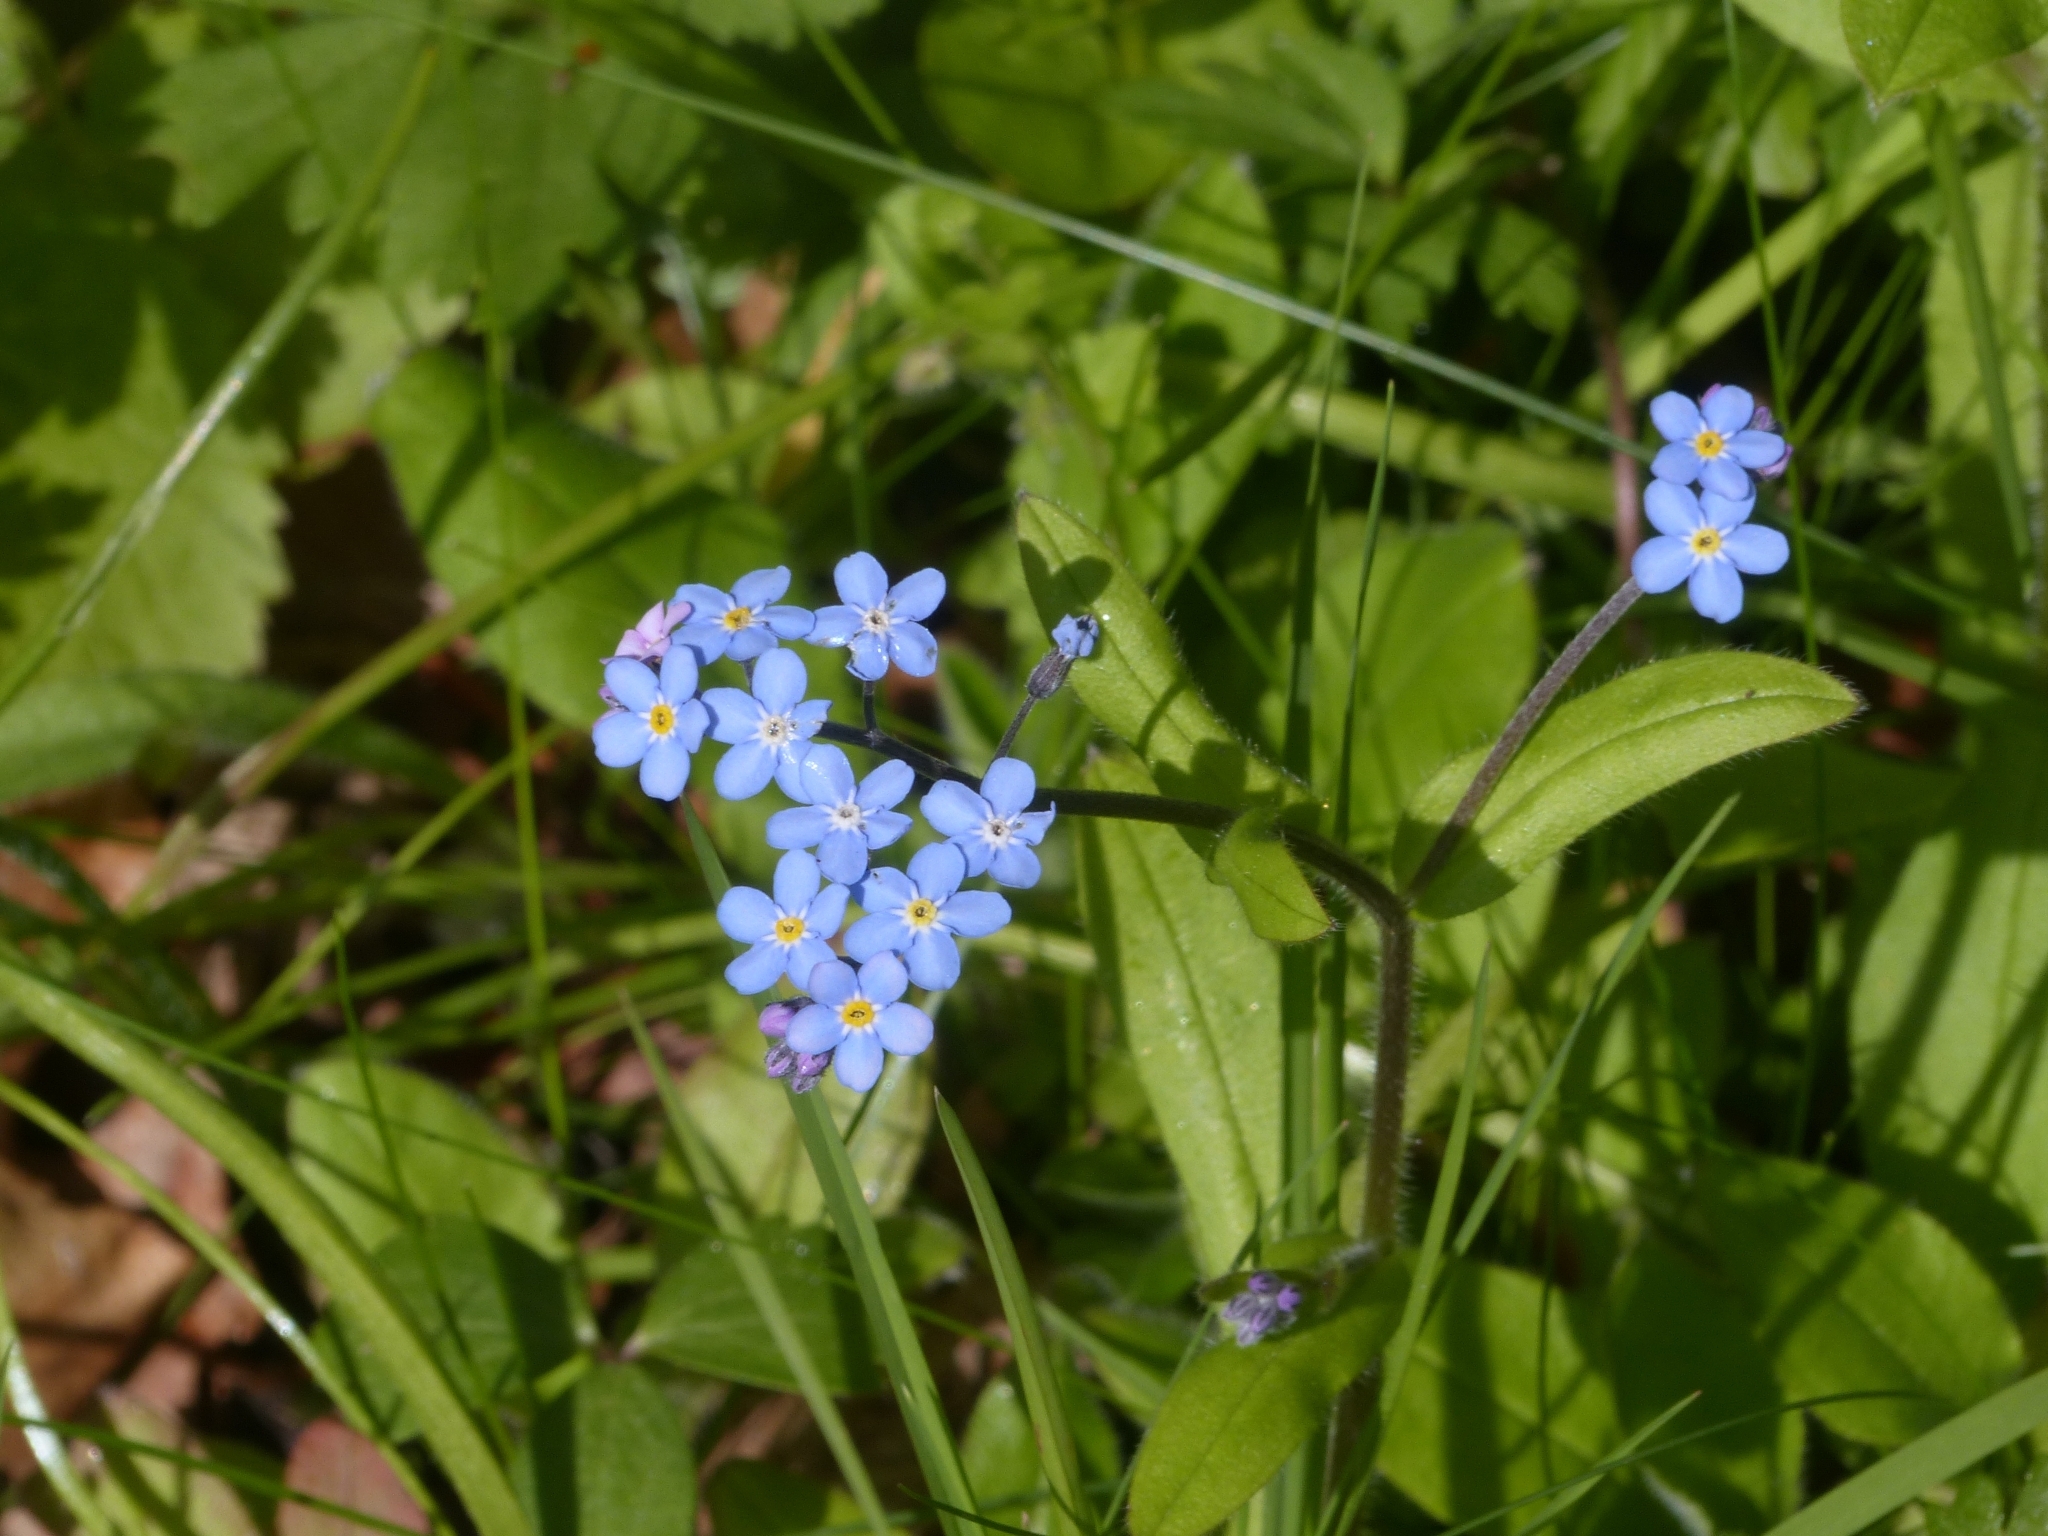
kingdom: Plantae
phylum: Tracheophyta
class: Magnoliopsida
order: Boraginales
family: Boraginaceae
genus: Myosotis
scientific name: Myosotis sylvatica
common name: Wood forget-me-not
